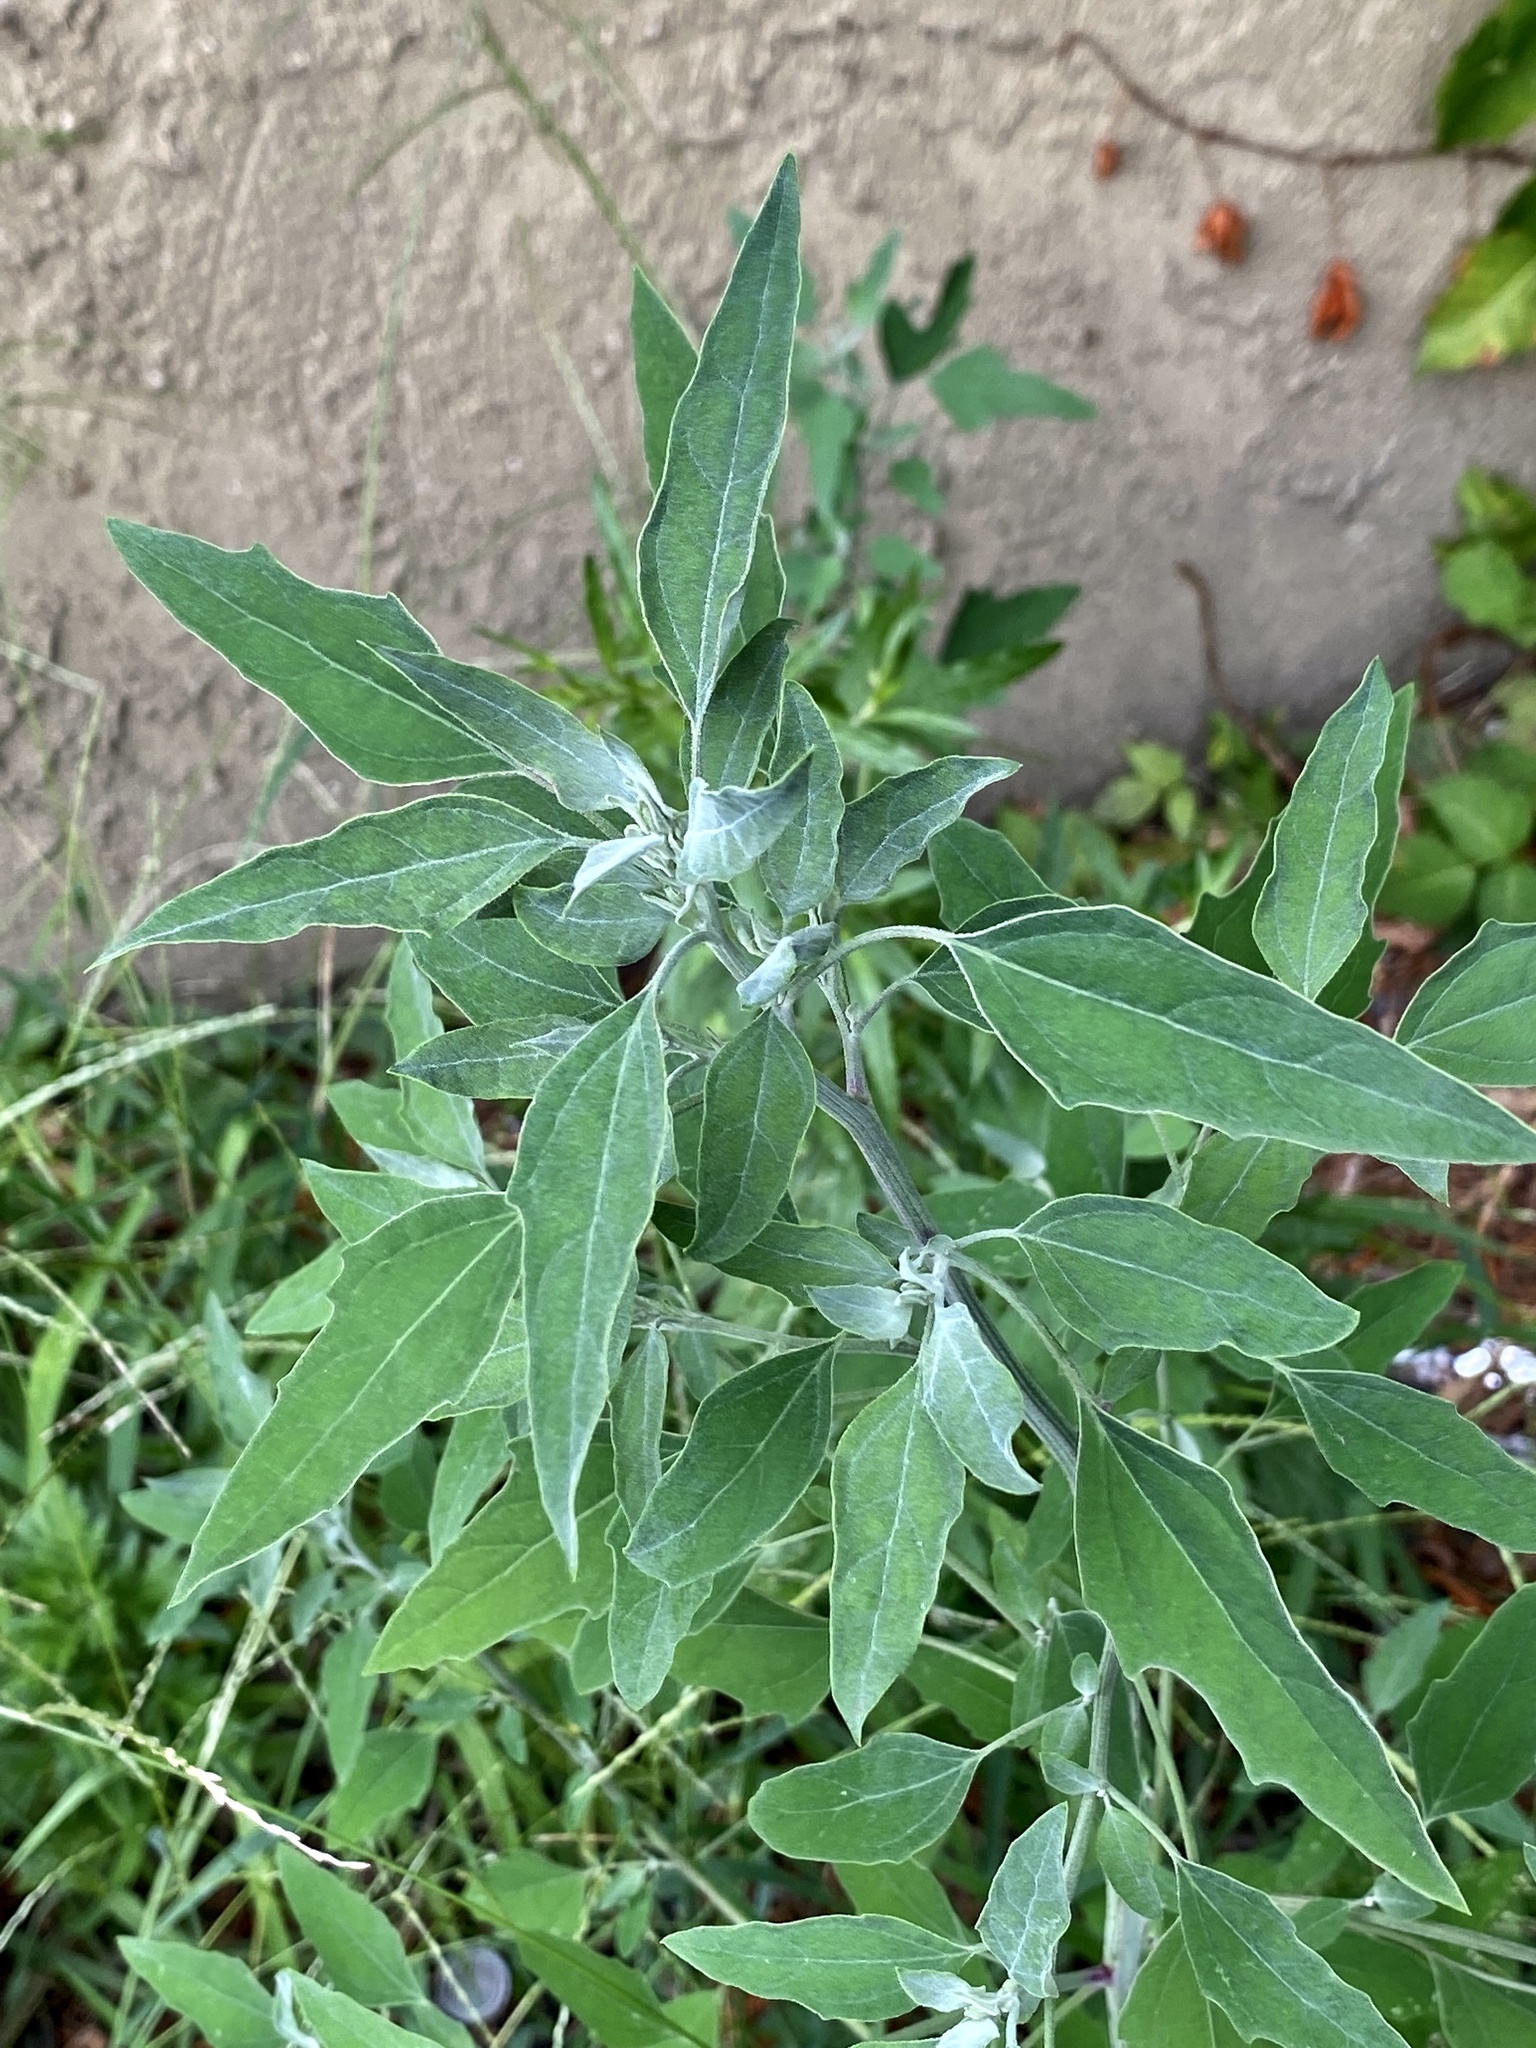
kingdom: Plantae
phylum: Tracheophyta
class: Magnoliopsida
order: Caryophyllales
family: Amaranthaceae
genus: Chenopodium
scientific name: Chenopodium album
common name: Fat-hen
